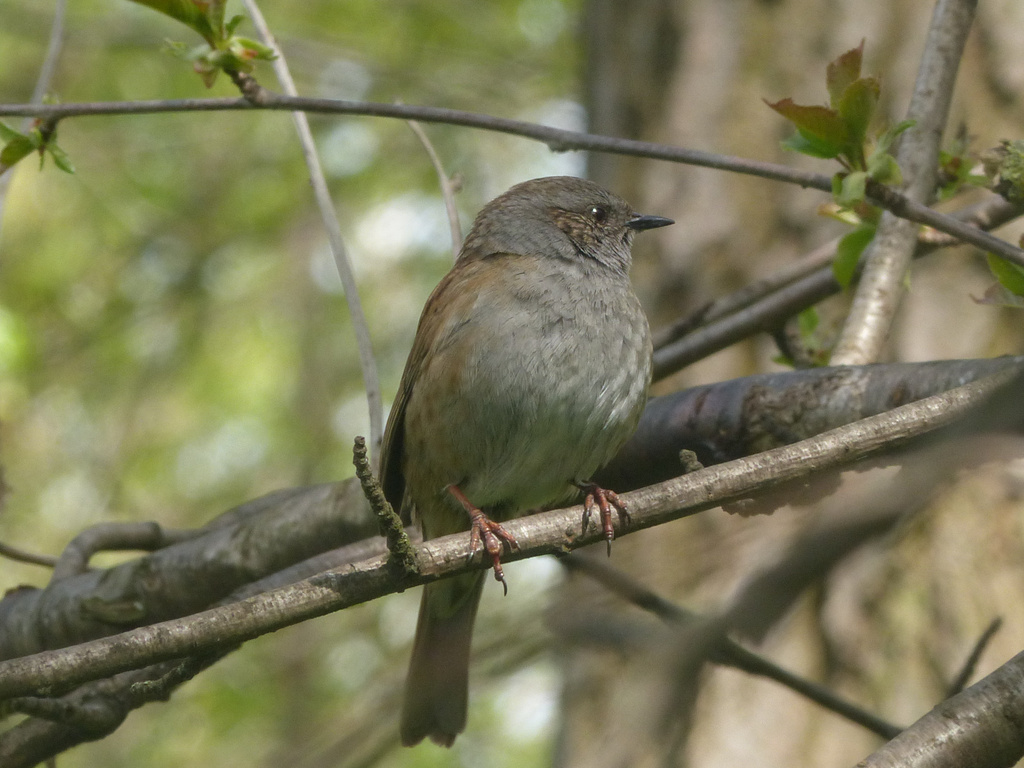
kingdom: Animalia
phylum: Chordata
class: Aves
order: Passeriformes
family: Prunellidae
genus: Prunella
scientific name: Prunella modularis
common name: Dunnock
